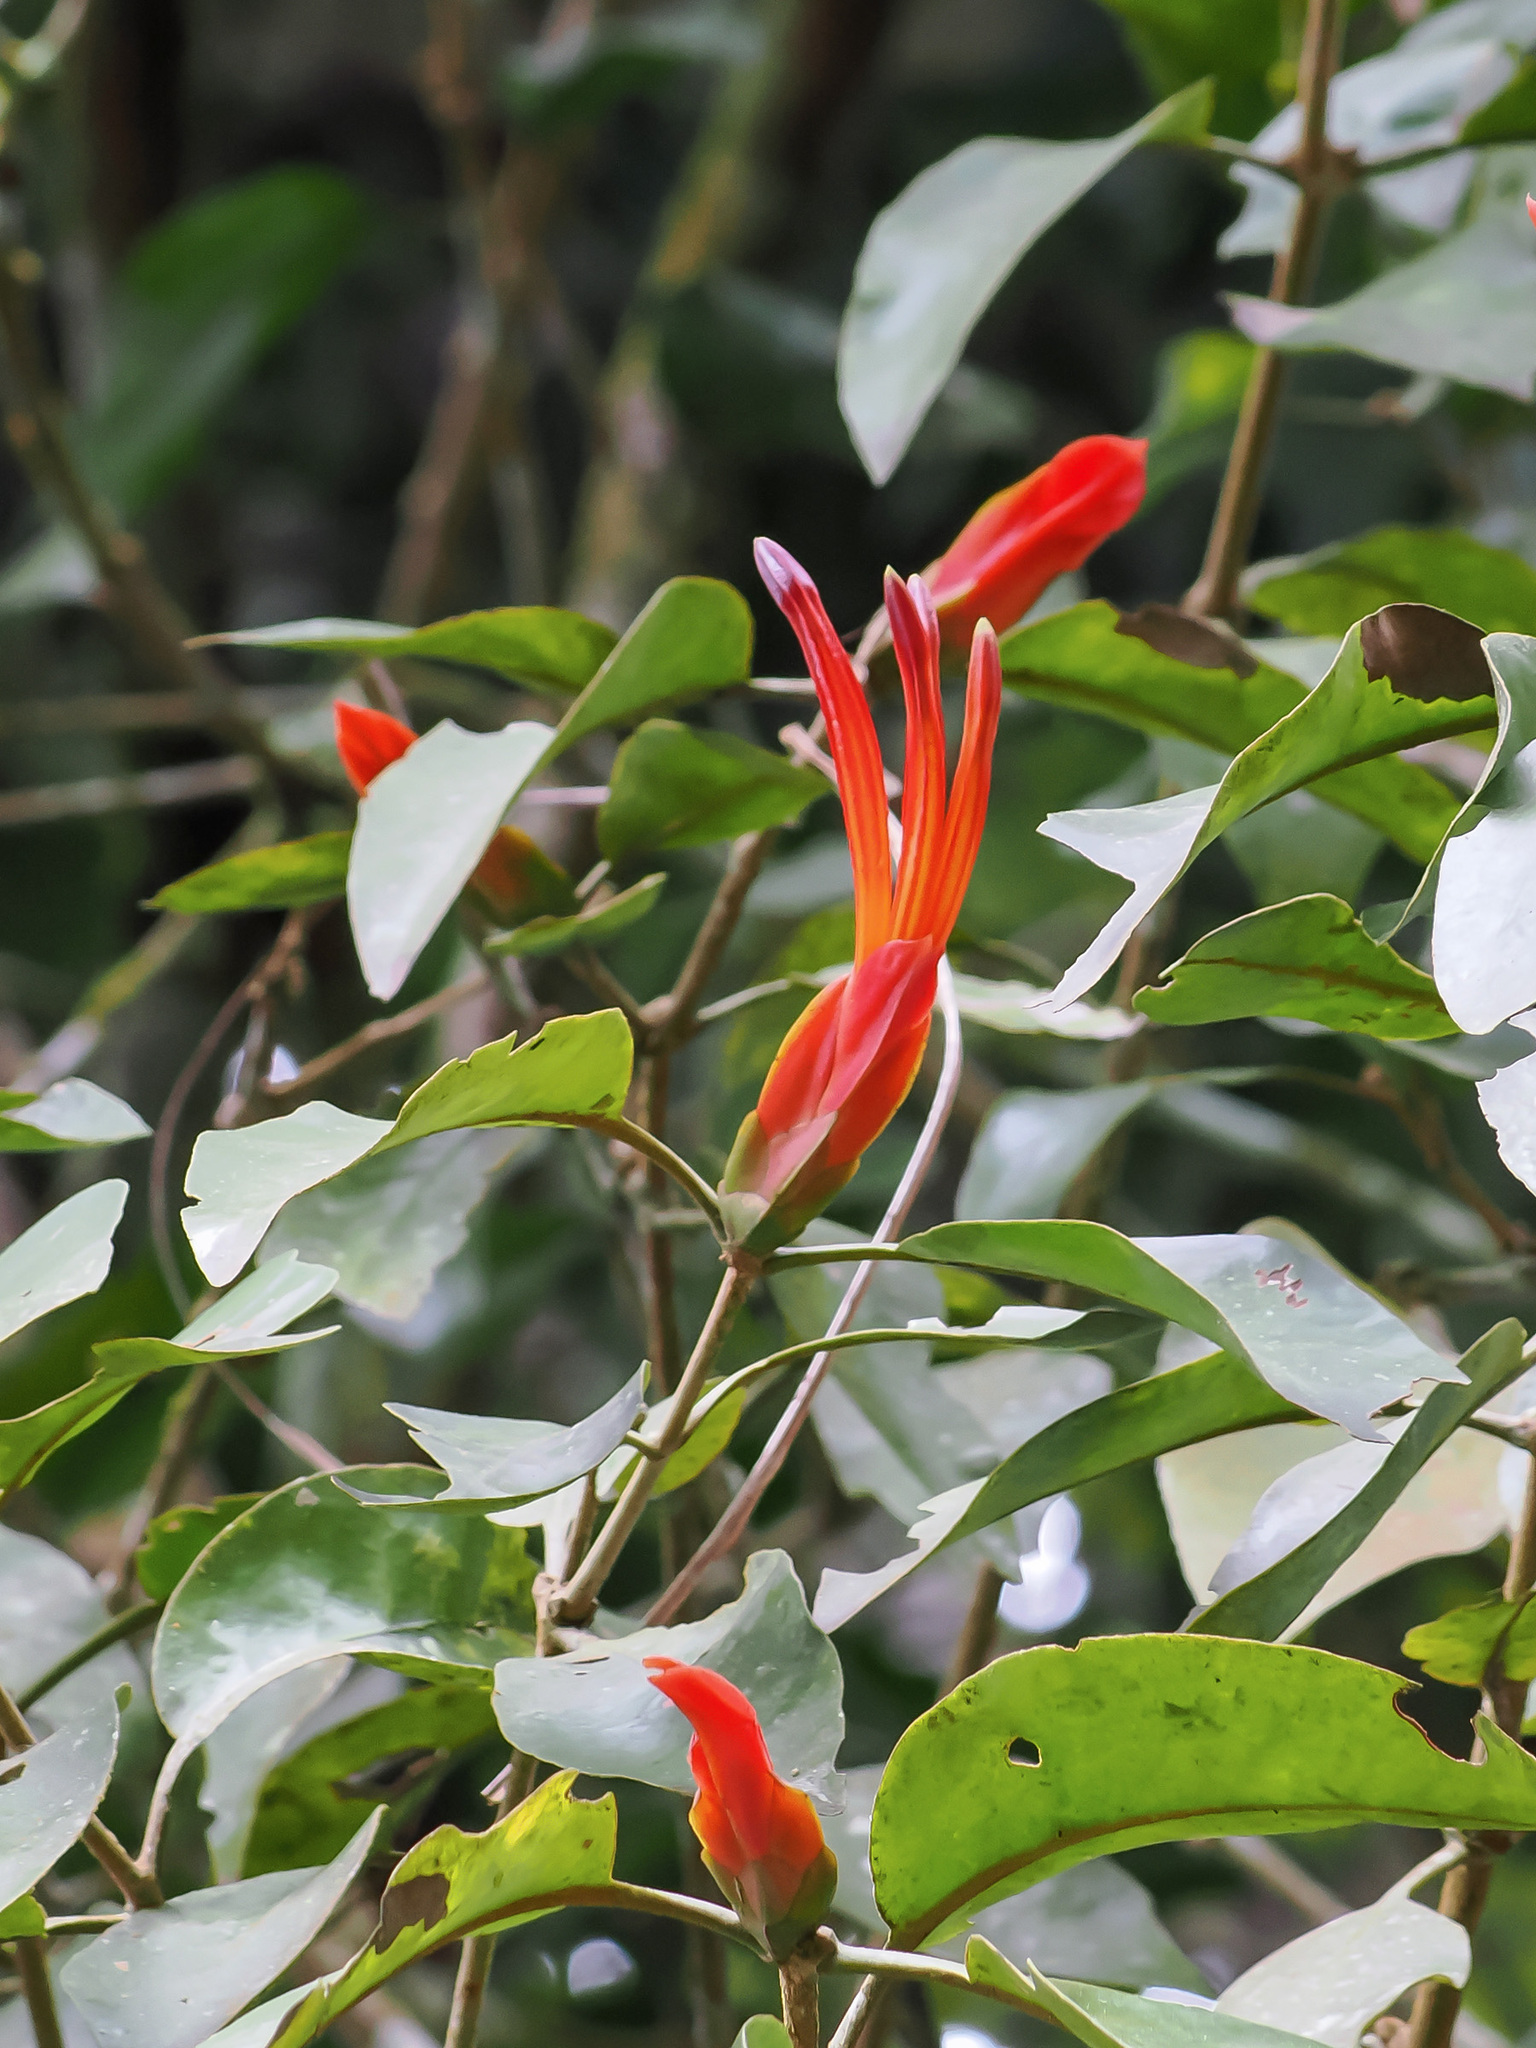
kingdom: Plantae
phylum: Tracheophyta
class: Magnoliopsida
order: Santalales
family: Loranthaceae
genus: Lepidaria
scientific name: Lepidaria kingii
